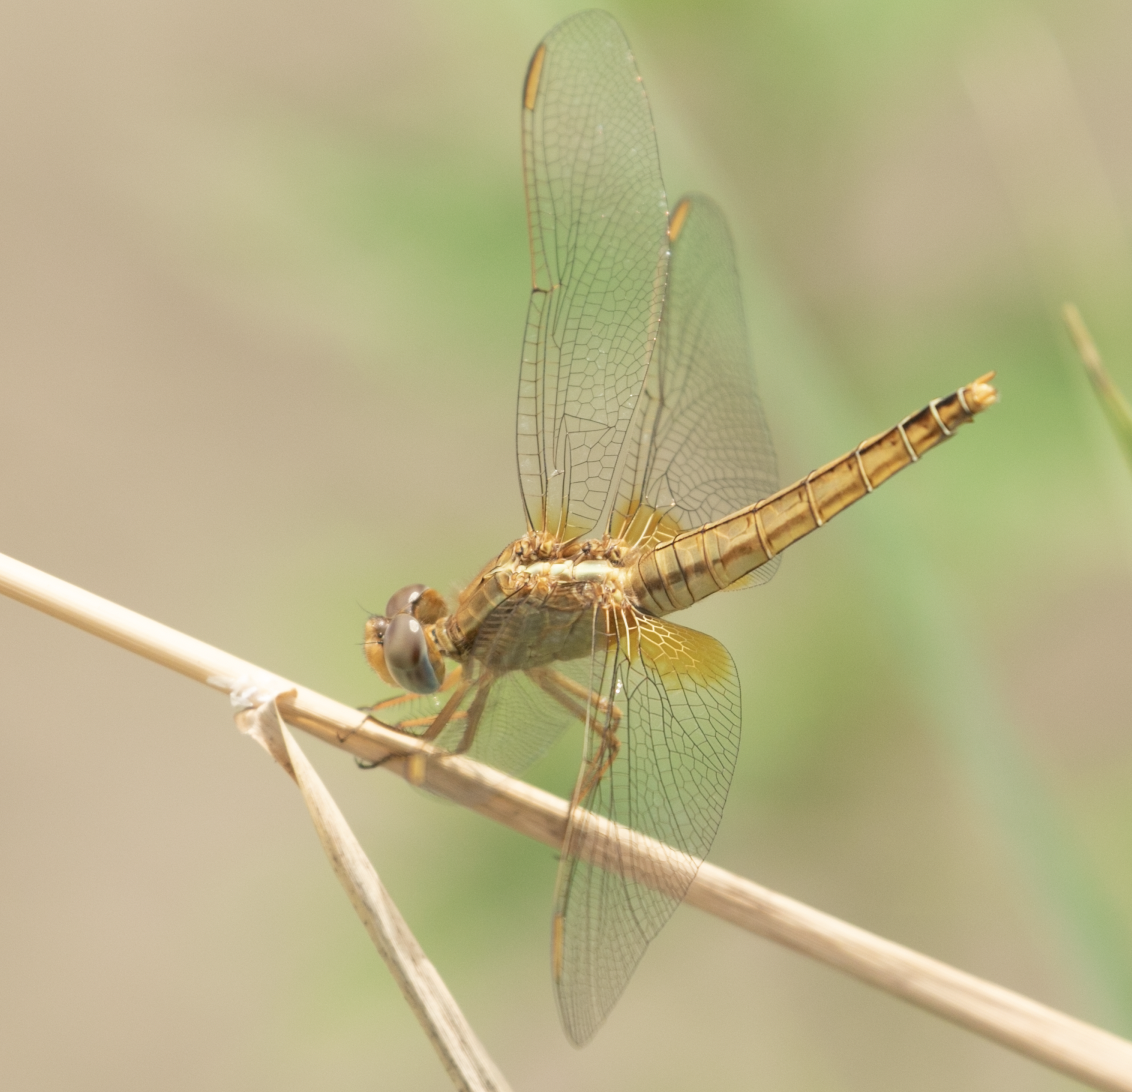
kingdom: Animalia
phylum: Arthropoda
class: Insecta
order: Odonata
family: Libellulidae
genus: Crocothemis
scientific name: Crocothemis erythraea
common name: Scarlet dragonfly
